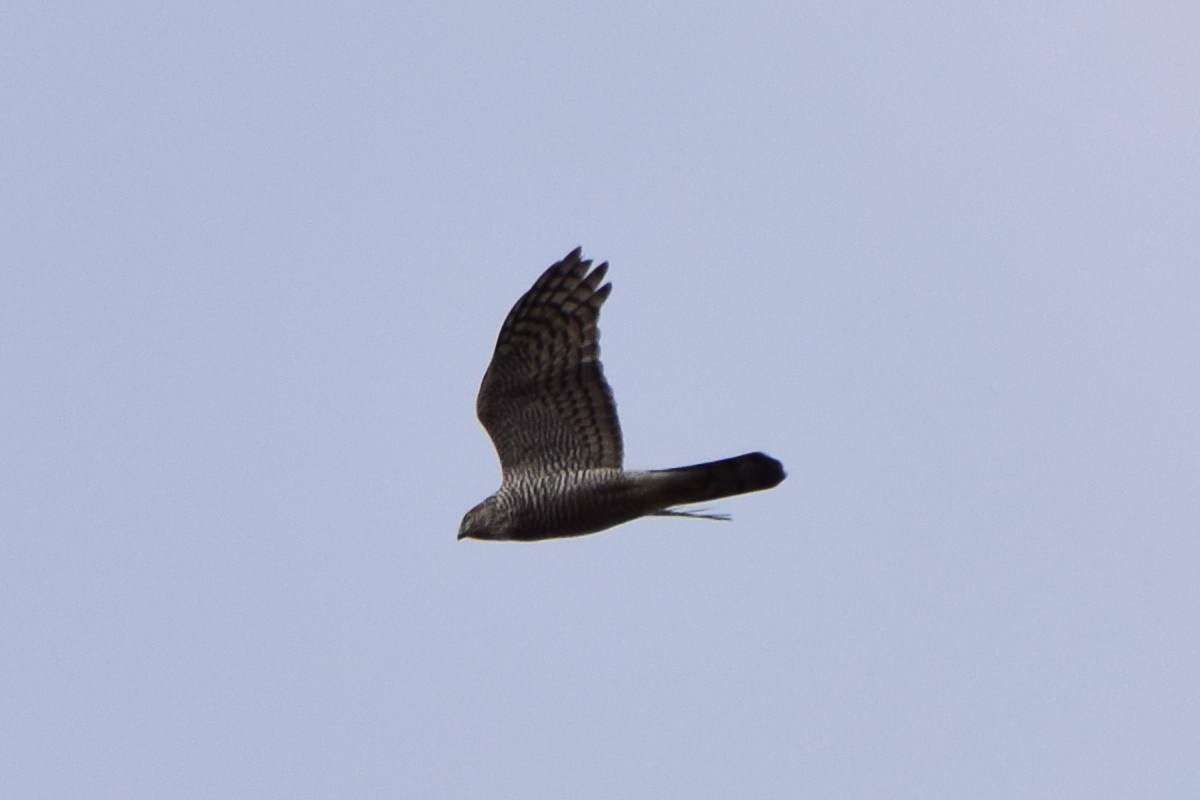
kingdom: Animalia
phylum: Chordata
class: Aves
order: Accipitriformes
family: Accipitridae
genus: Accipiter
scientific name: Accipiter nisus
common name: Eurasian sparrowhawk
